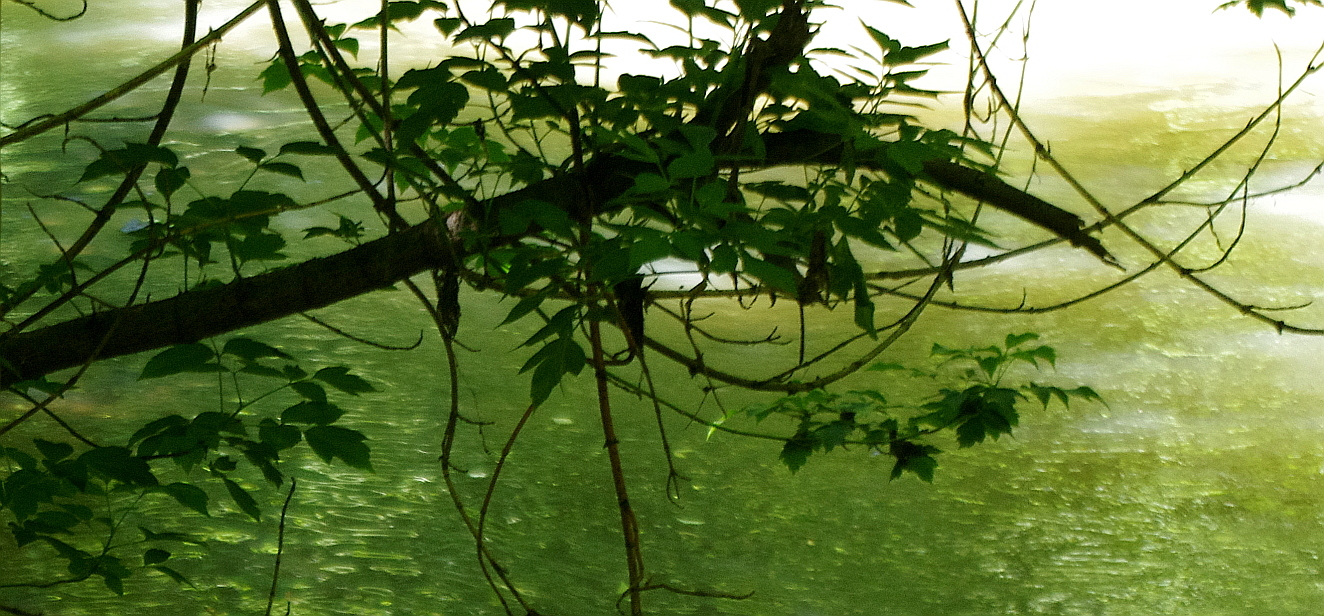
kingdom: Plantae
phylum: Tracheophyta
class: Magnoliopsida
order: Sapindales
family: Sapindaceae
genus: Acer
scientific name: Acer negundo
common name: Ashleaf maple
